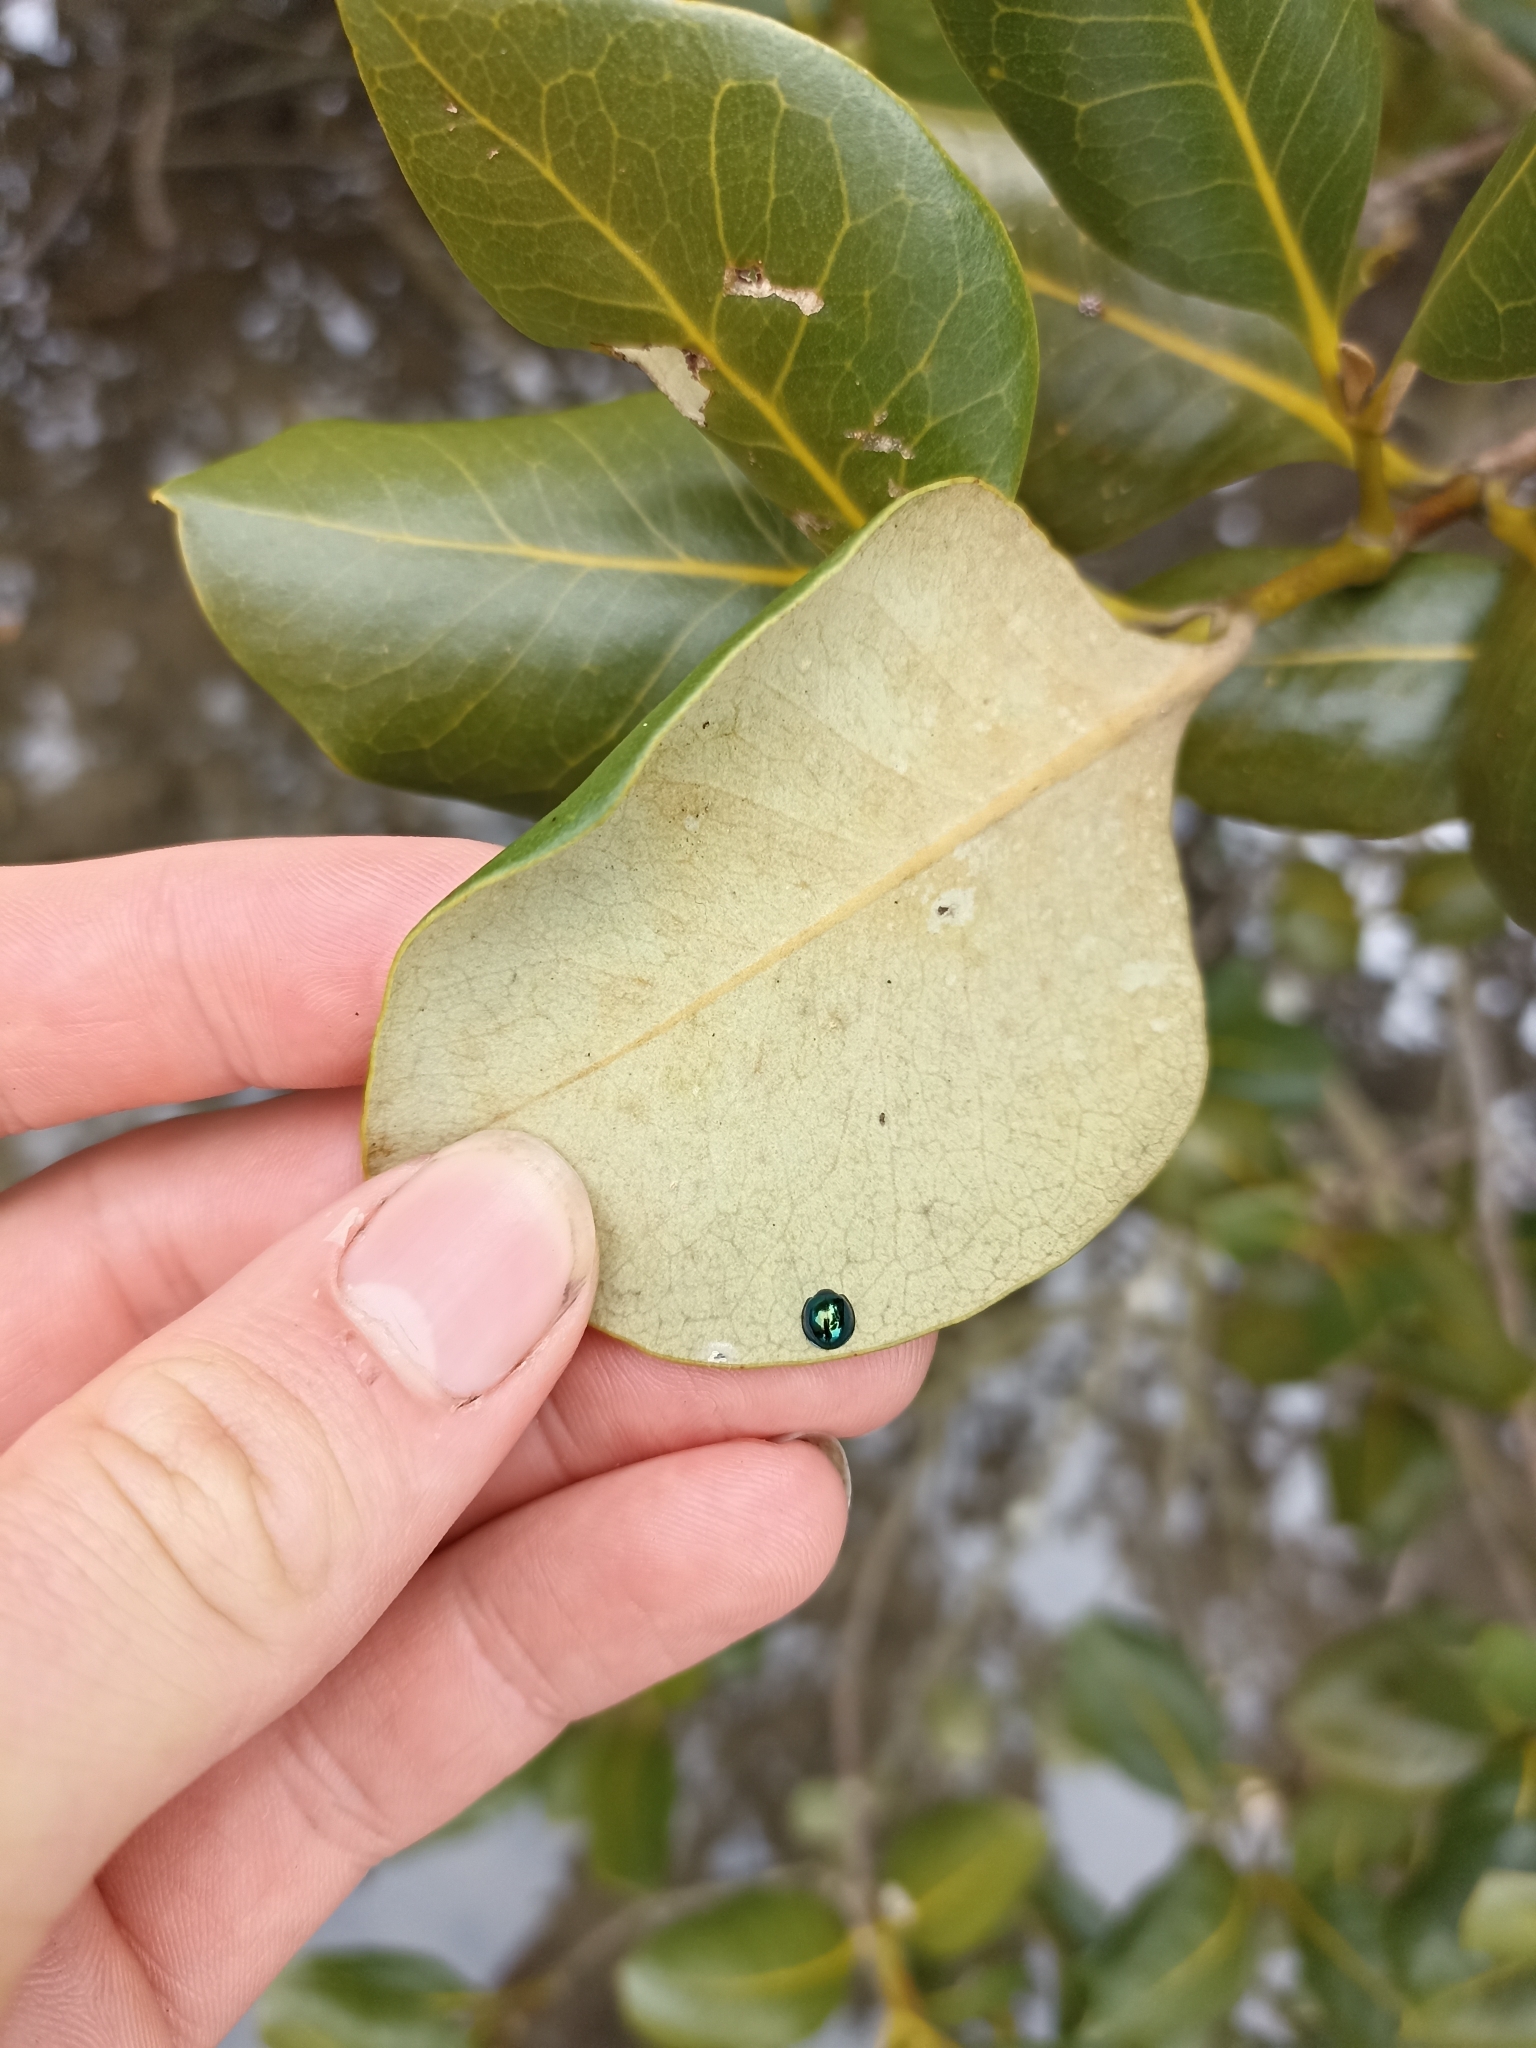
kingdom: Animalia
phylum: Arthropoda
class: Insecta
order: Coleoptera
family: Coccinellidae
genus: Halmus
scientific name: Halmus chalybeus
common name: Steel blue ladybird beetle
